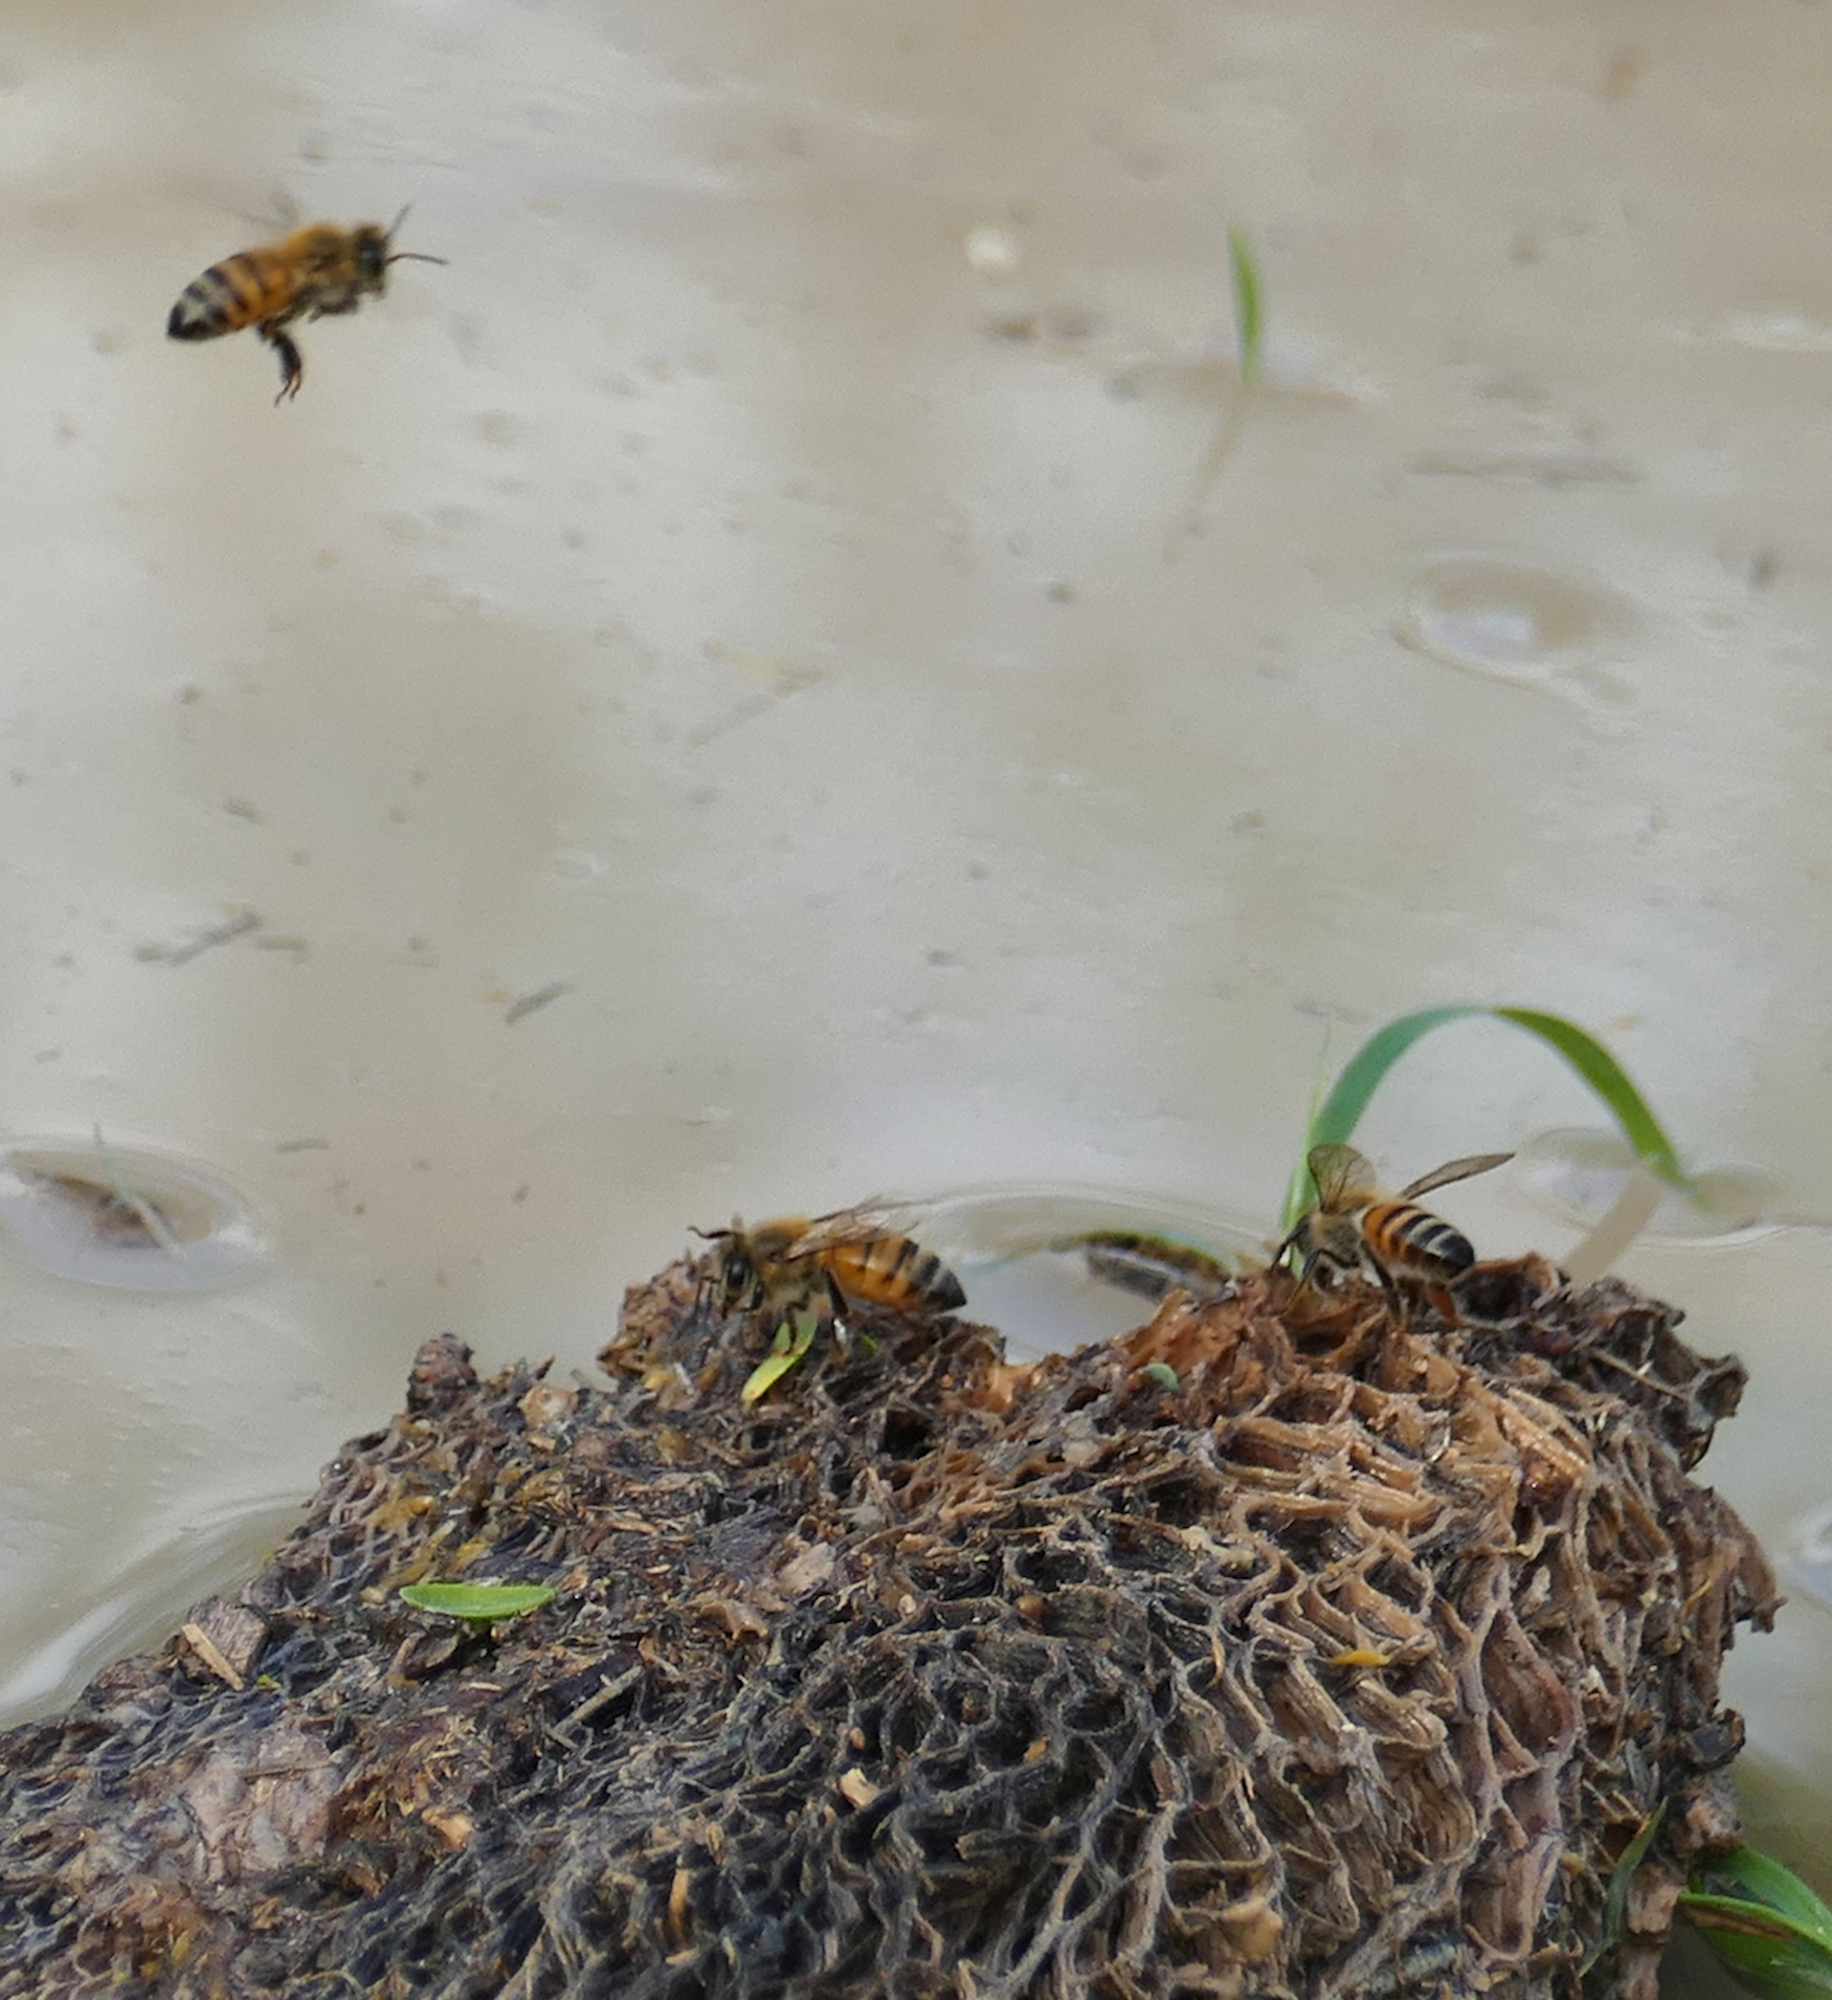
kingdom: Animalia
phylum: Arthropoda
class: Insecta
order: Hymenoptera
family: Apidae
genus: Apis
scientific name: Apis mellifera
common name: Honey bee
